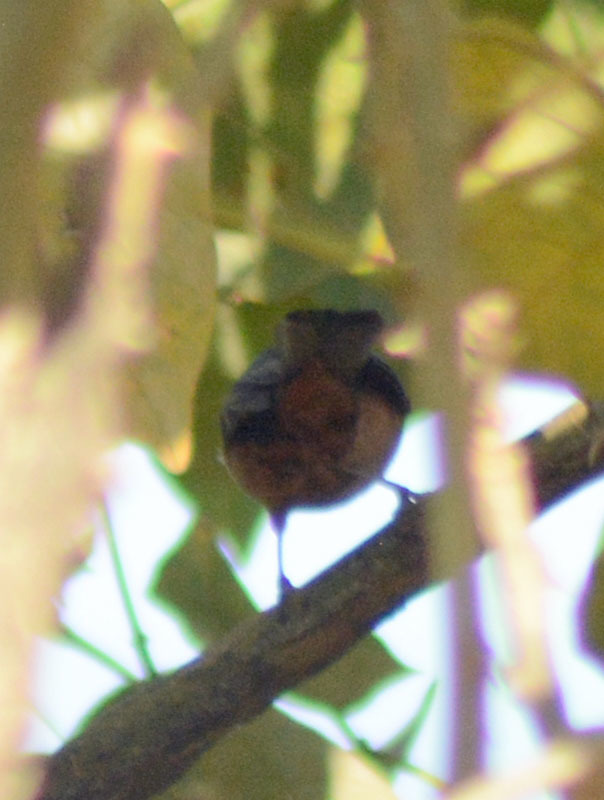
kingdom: Animalia
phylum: Chordata
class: Aves
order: Passeriformes
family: Thraupidae
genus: Diglossa
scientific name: Diglossa baritula
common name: Cinnamon-bellied flowerpiercer
